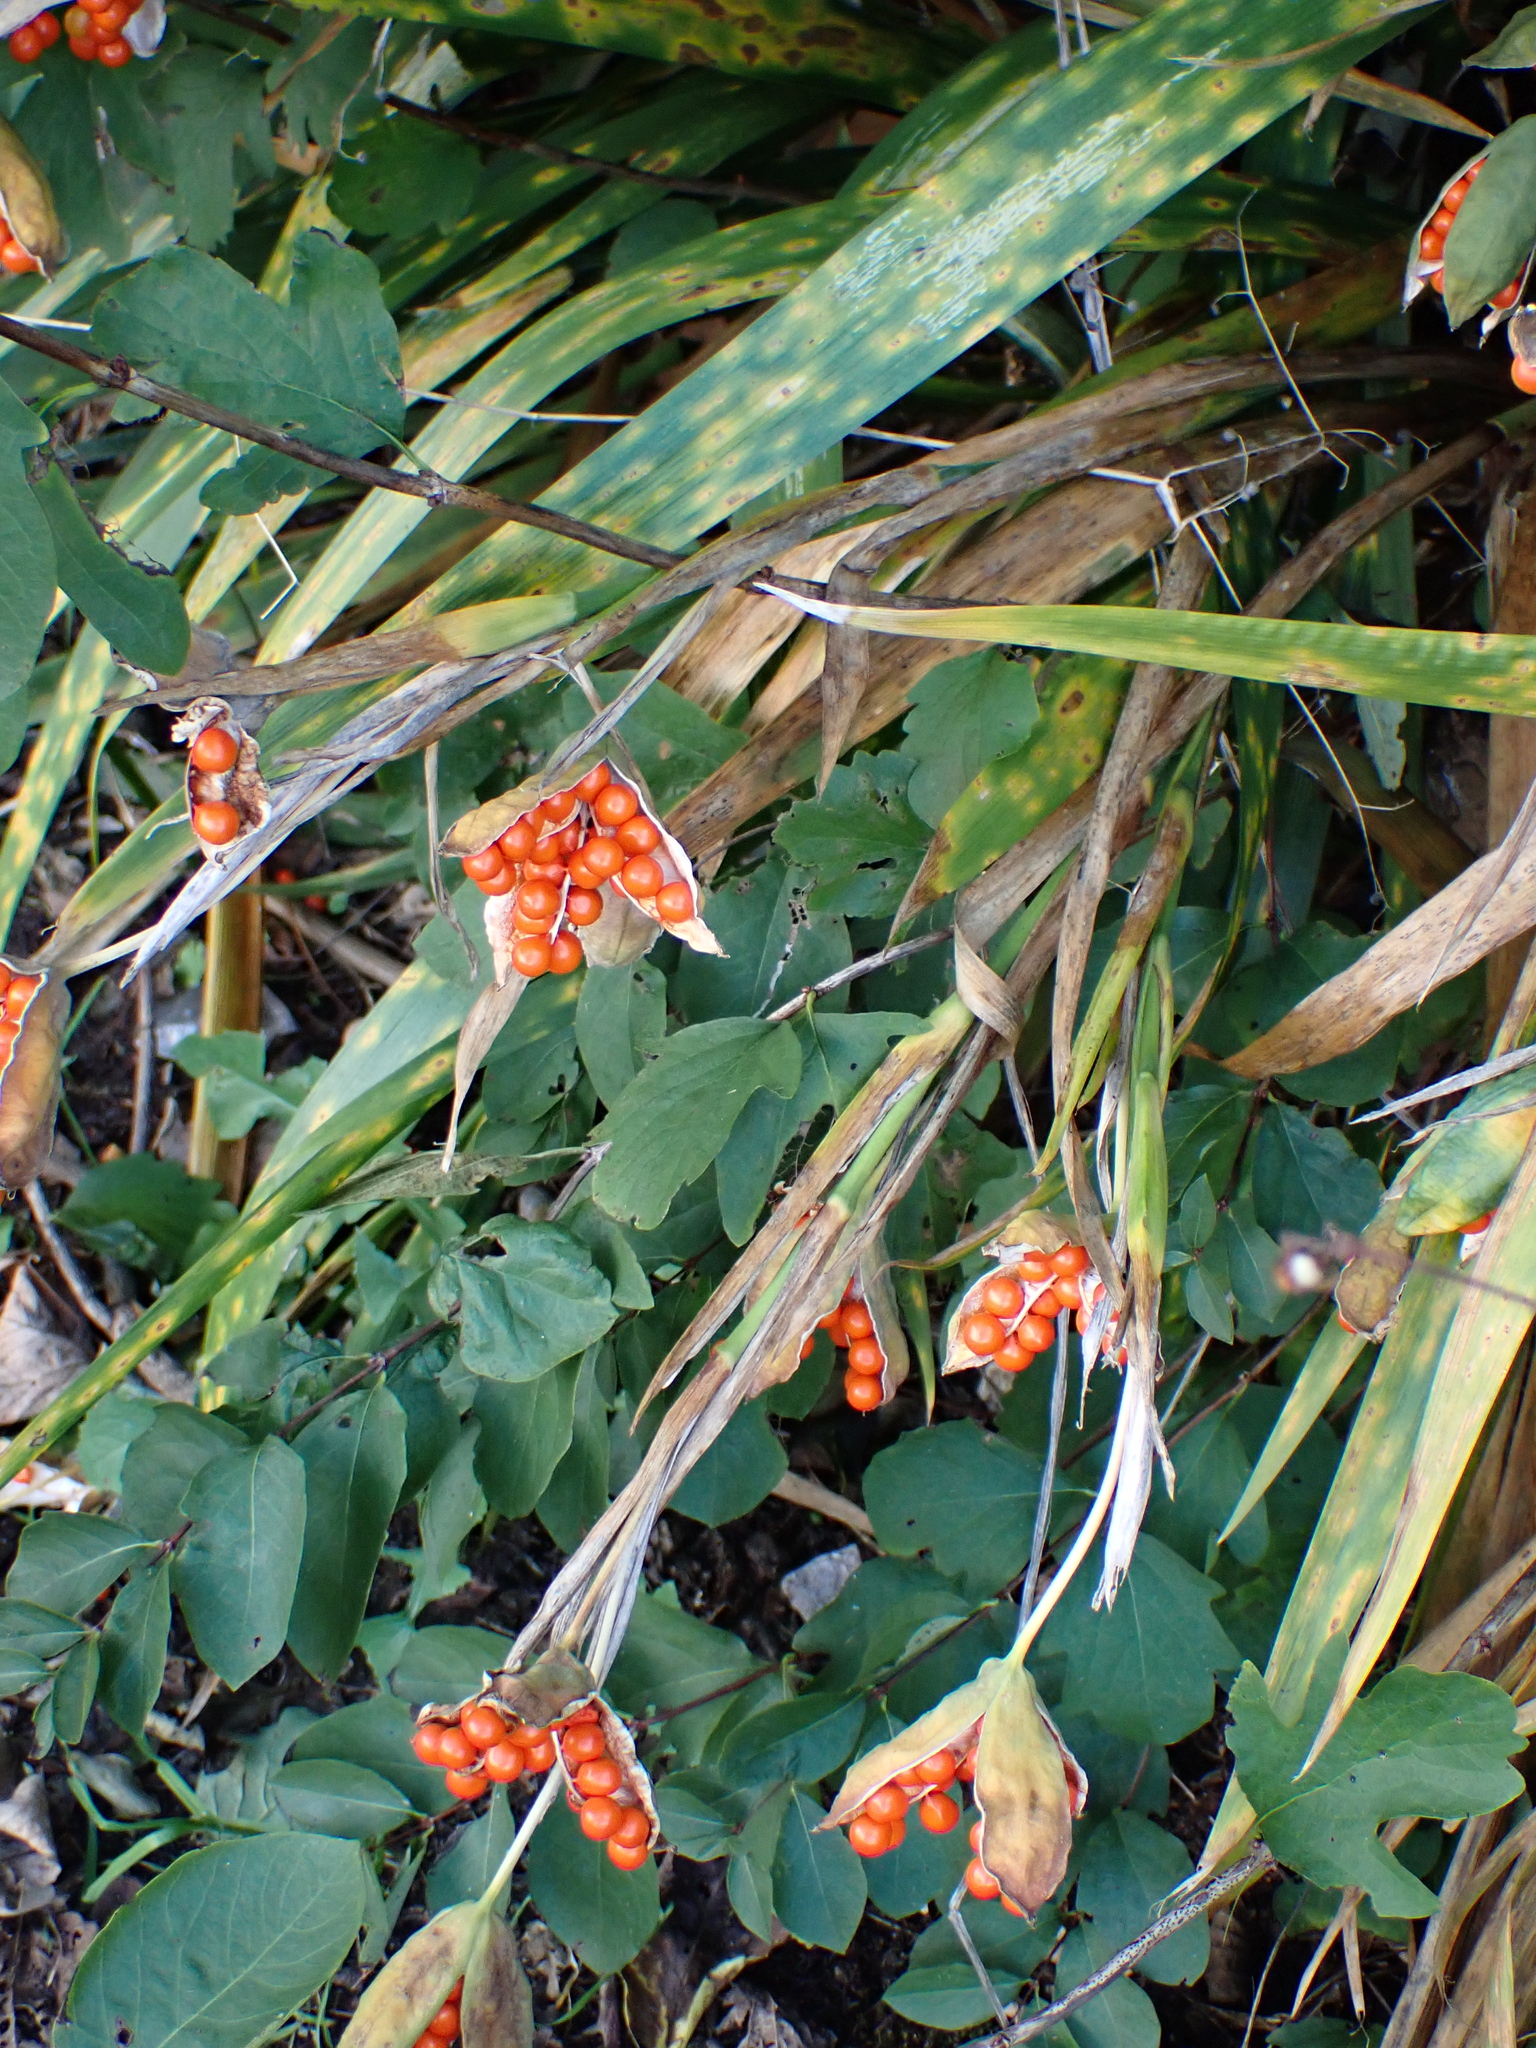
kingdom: Plantae
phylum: Tracheophyta
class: Liliopsida
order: Asparagales
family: Iridaceae
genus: Iris
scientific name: Iris foetidissima
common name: Stinking iris
